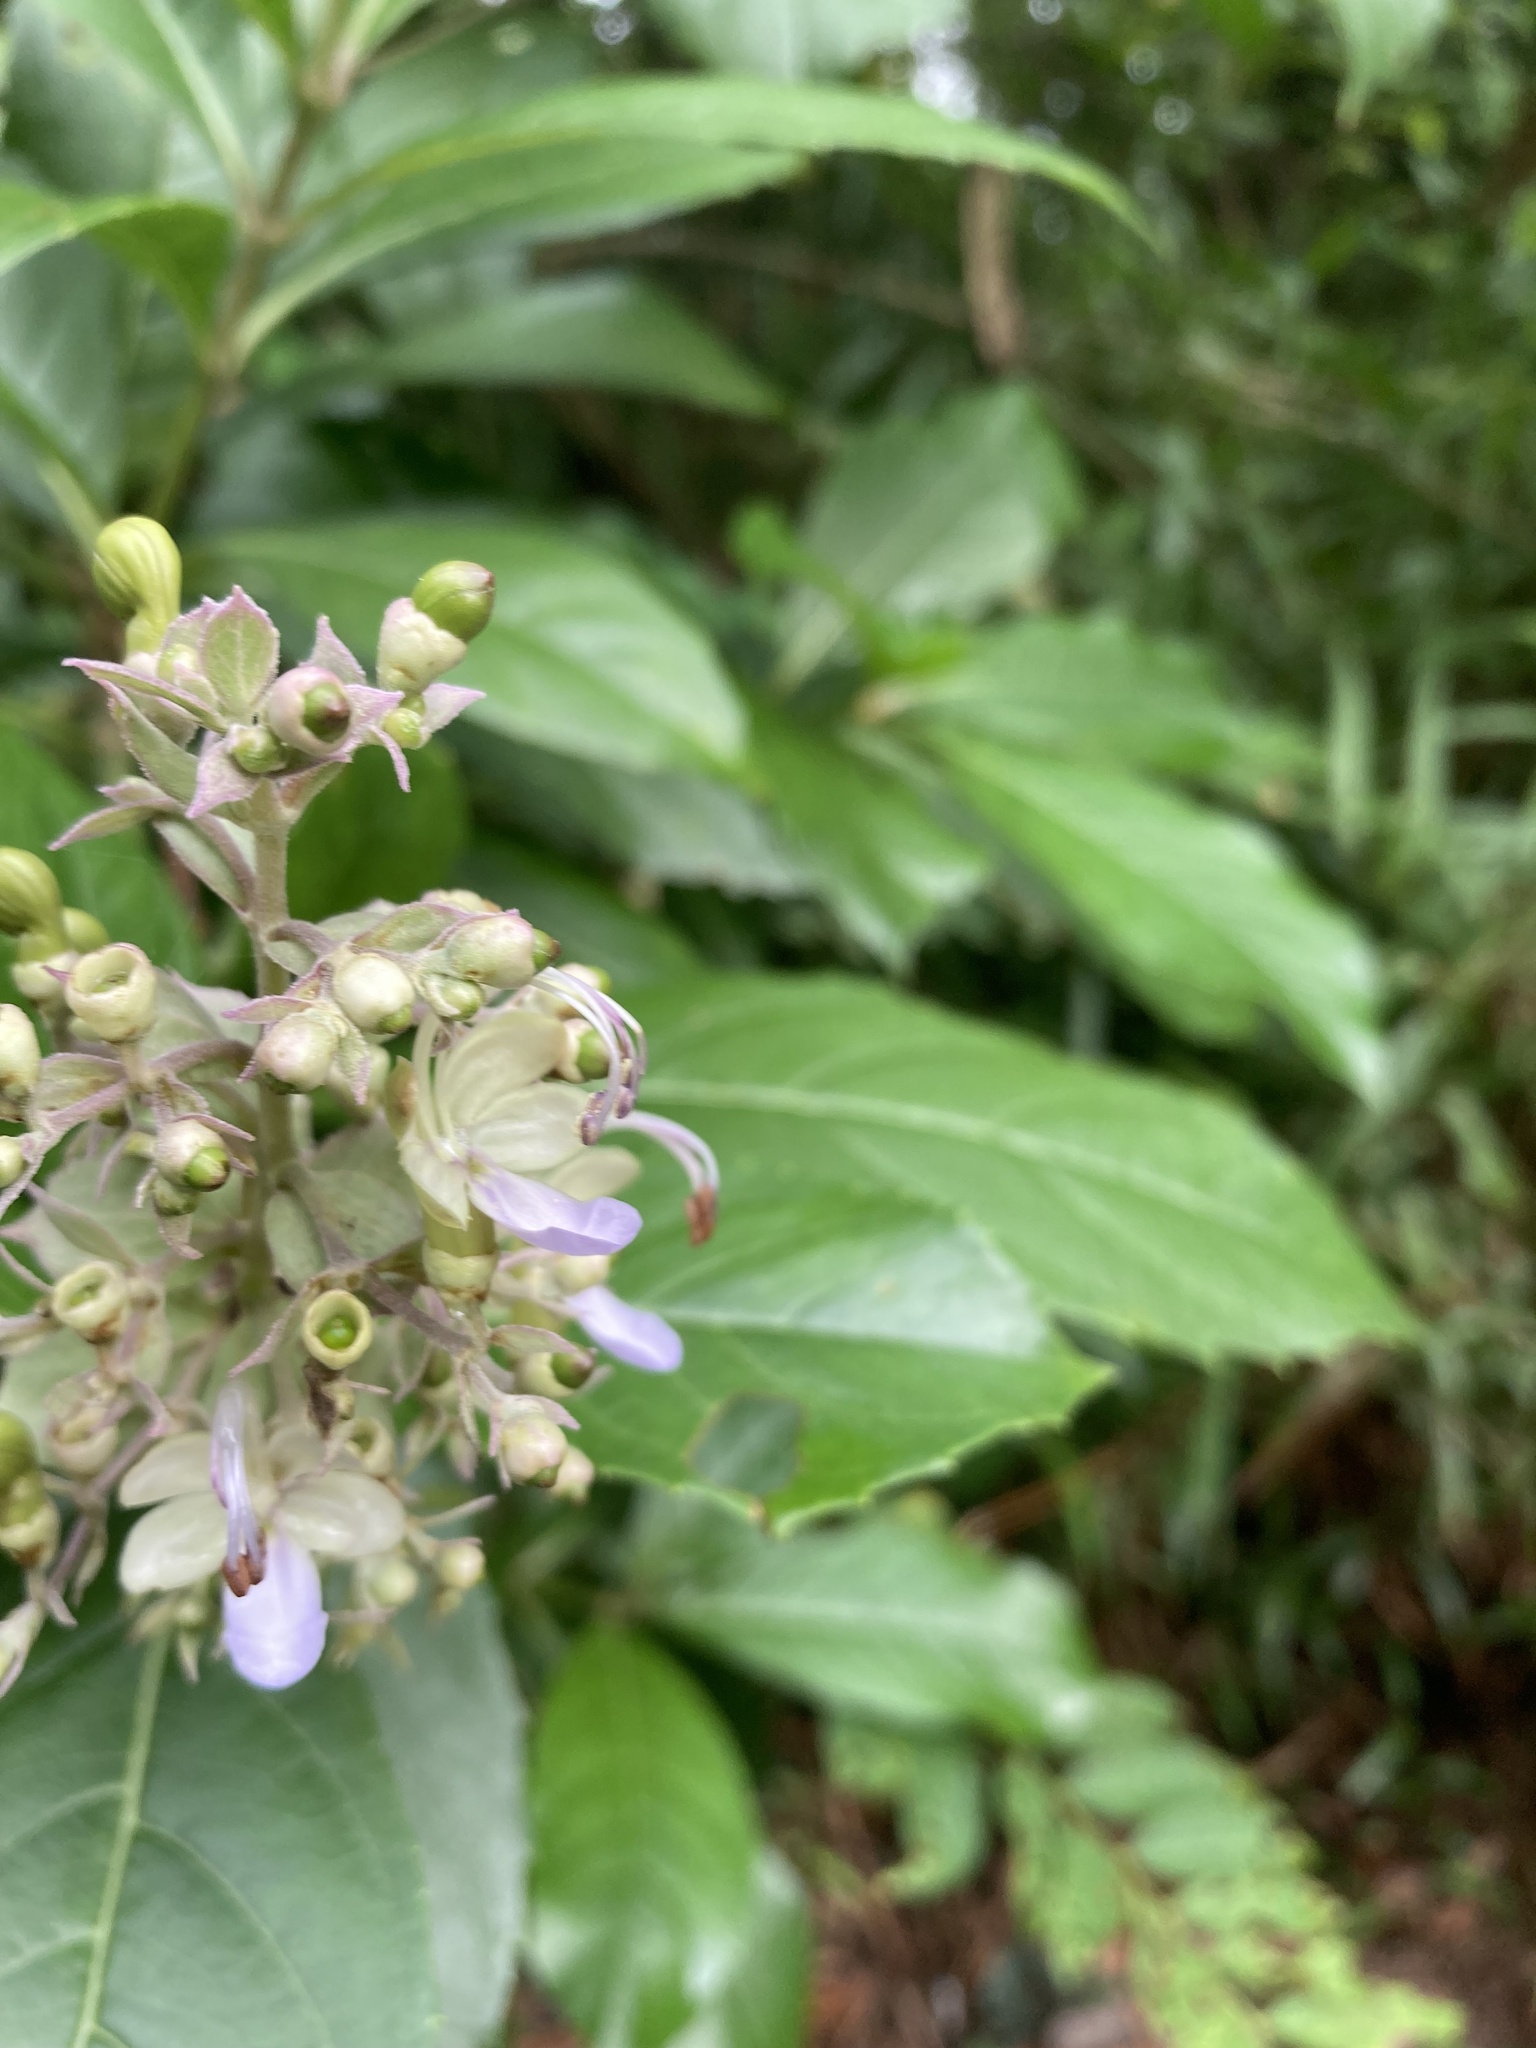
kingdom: Plantae
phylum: Tracheophyta
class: Magnoliopsida
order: Lamiales
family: Lamiaceae
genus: Rotheca
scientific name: Rotheca serrata
